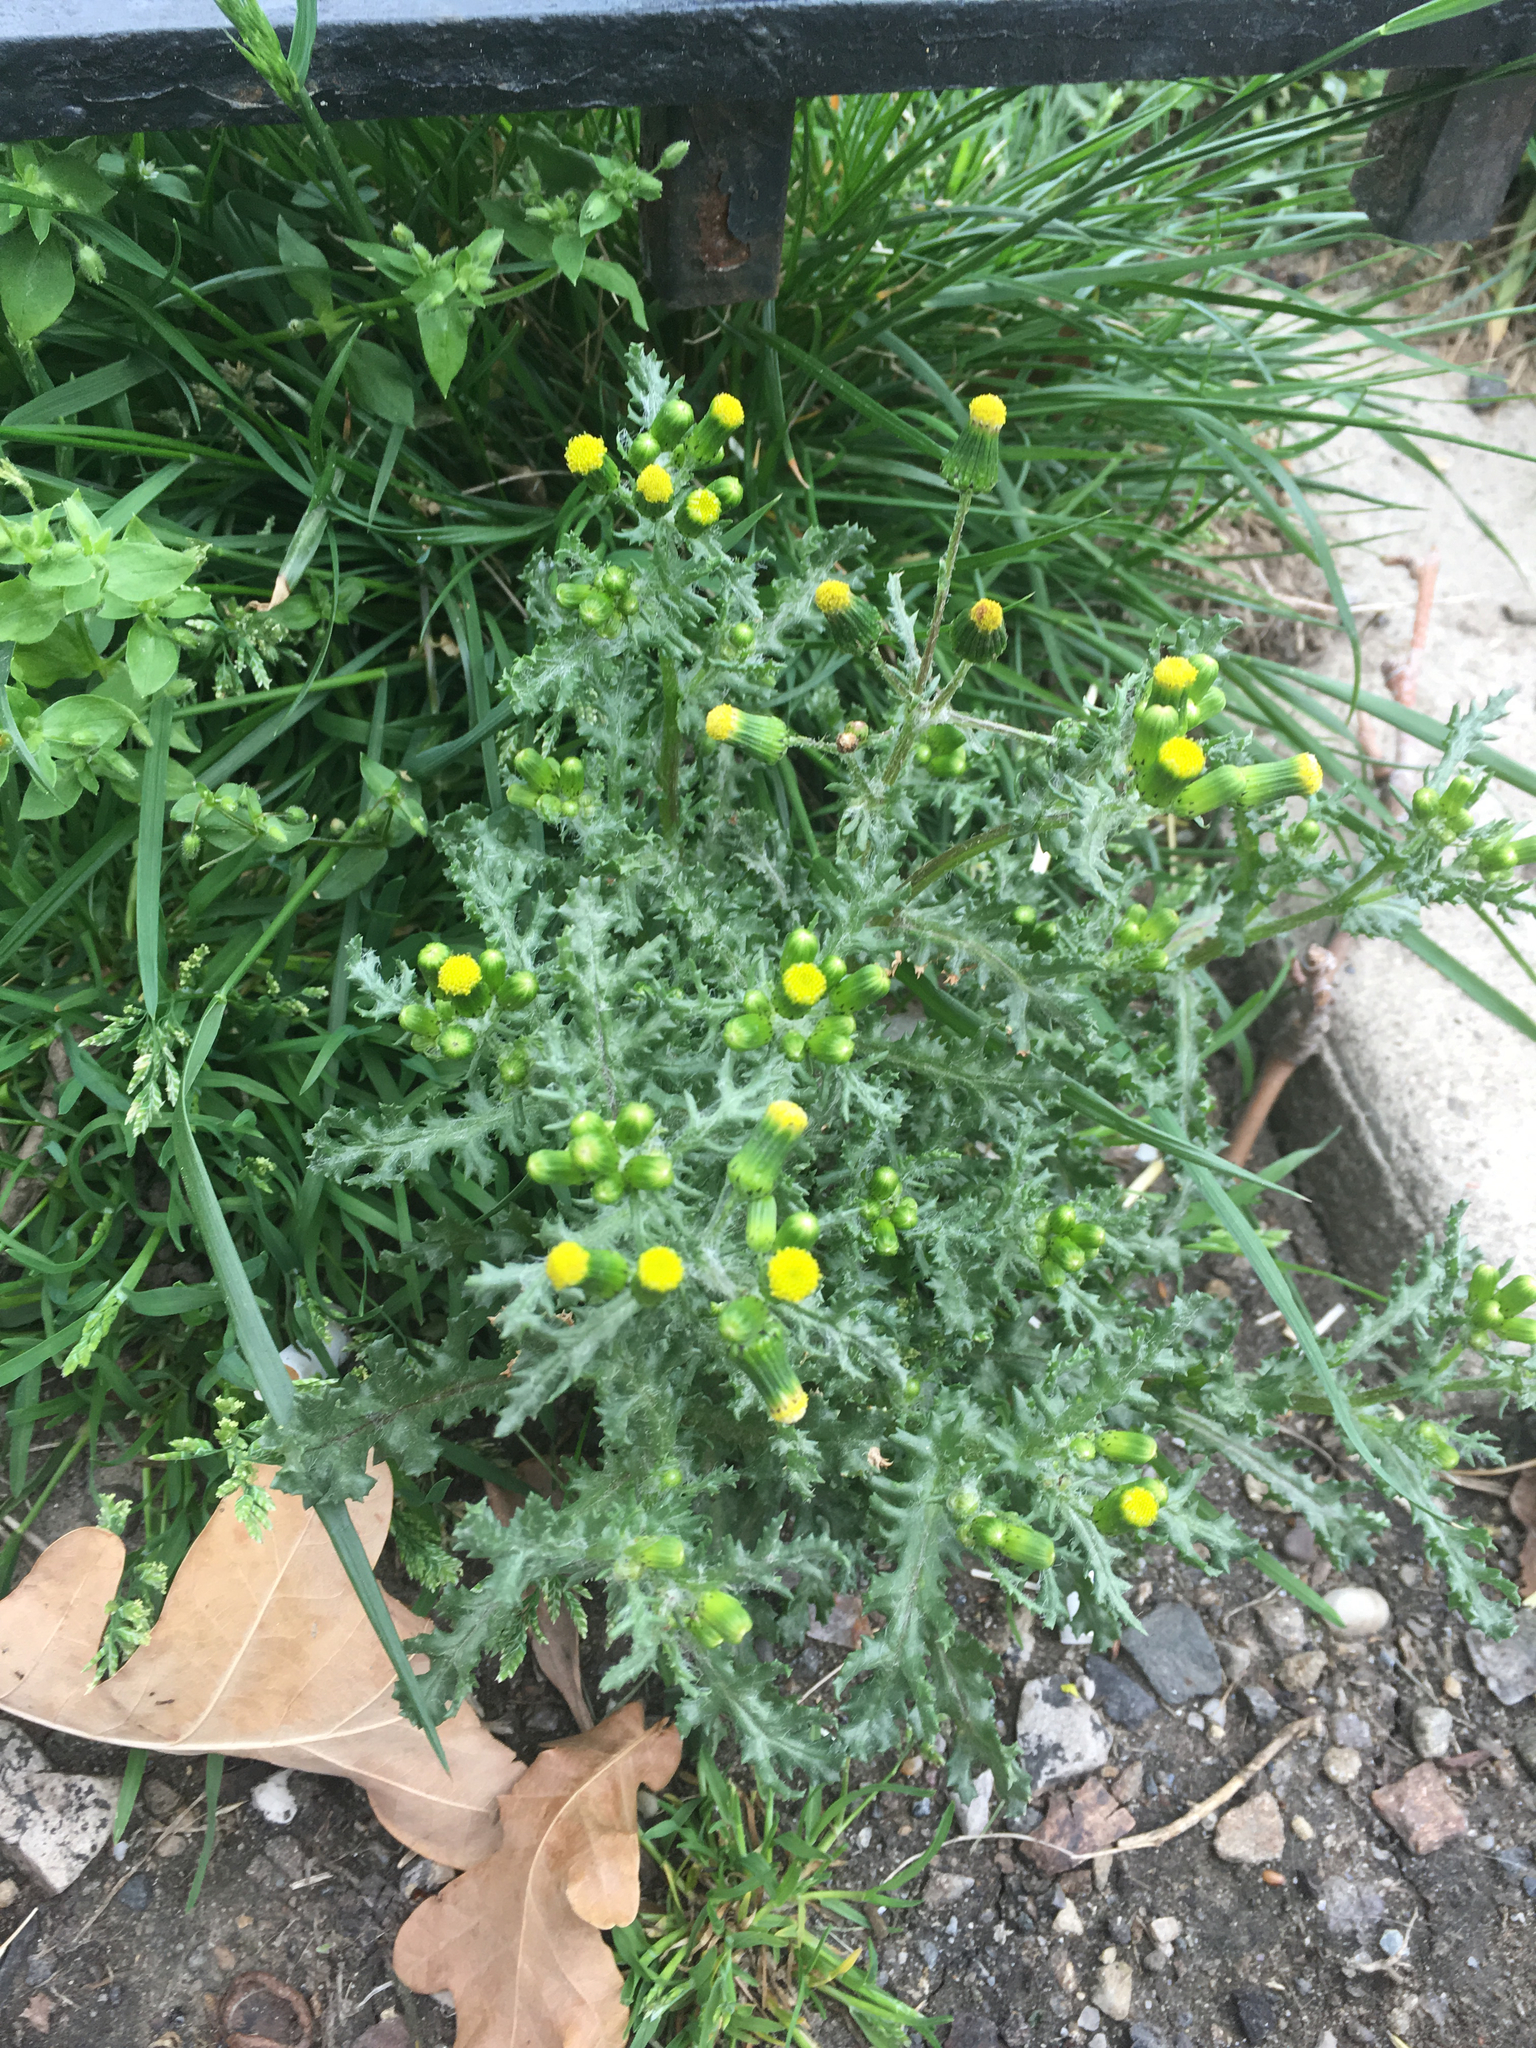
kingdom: Plantae
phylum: Tracheophyta
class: Magnoliopsida
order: Asterales
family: Asteraceae
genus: Senecio
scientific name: Senecio vulgaris
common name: Old-man-in-the-spring
